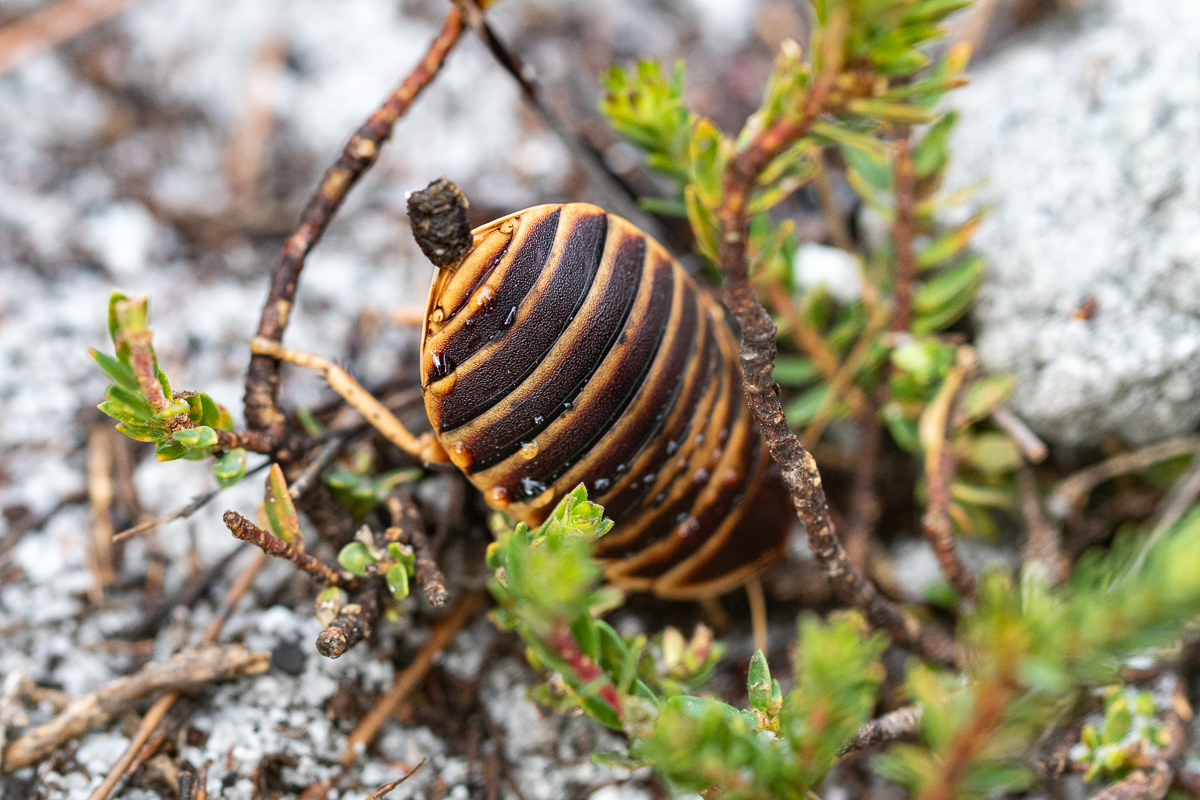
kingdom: Animalia
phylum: Arthropoda
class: Insecta
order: Blattodea
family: Blaberidae
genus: Aptera
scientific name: Aptera fusca
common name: Cape mountain cockroach
